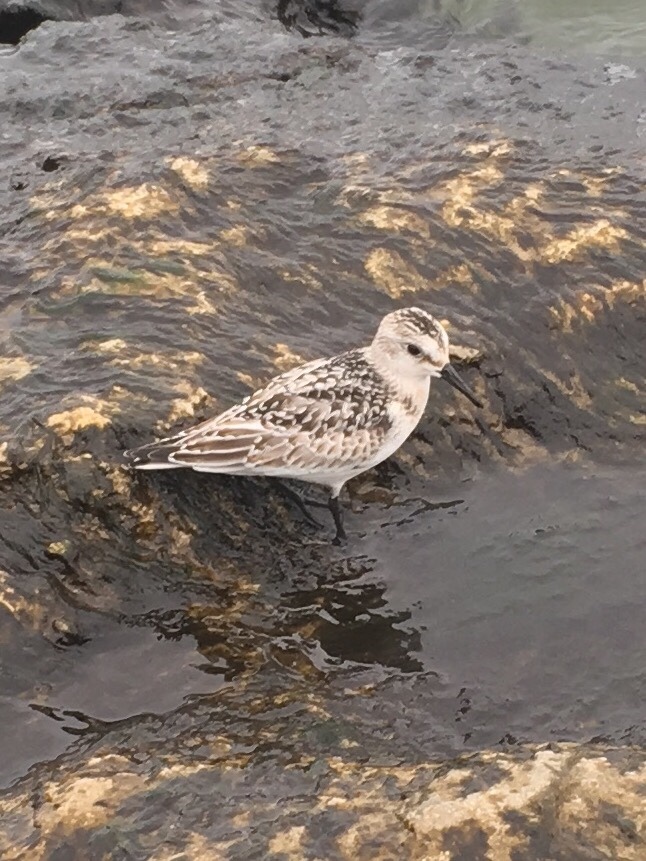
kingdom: Animalia
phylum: Chordata
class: Aves
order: Charadriiformes
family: Scolopacidae
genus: Calidris
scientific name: Calidris alba
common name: Sanderling
